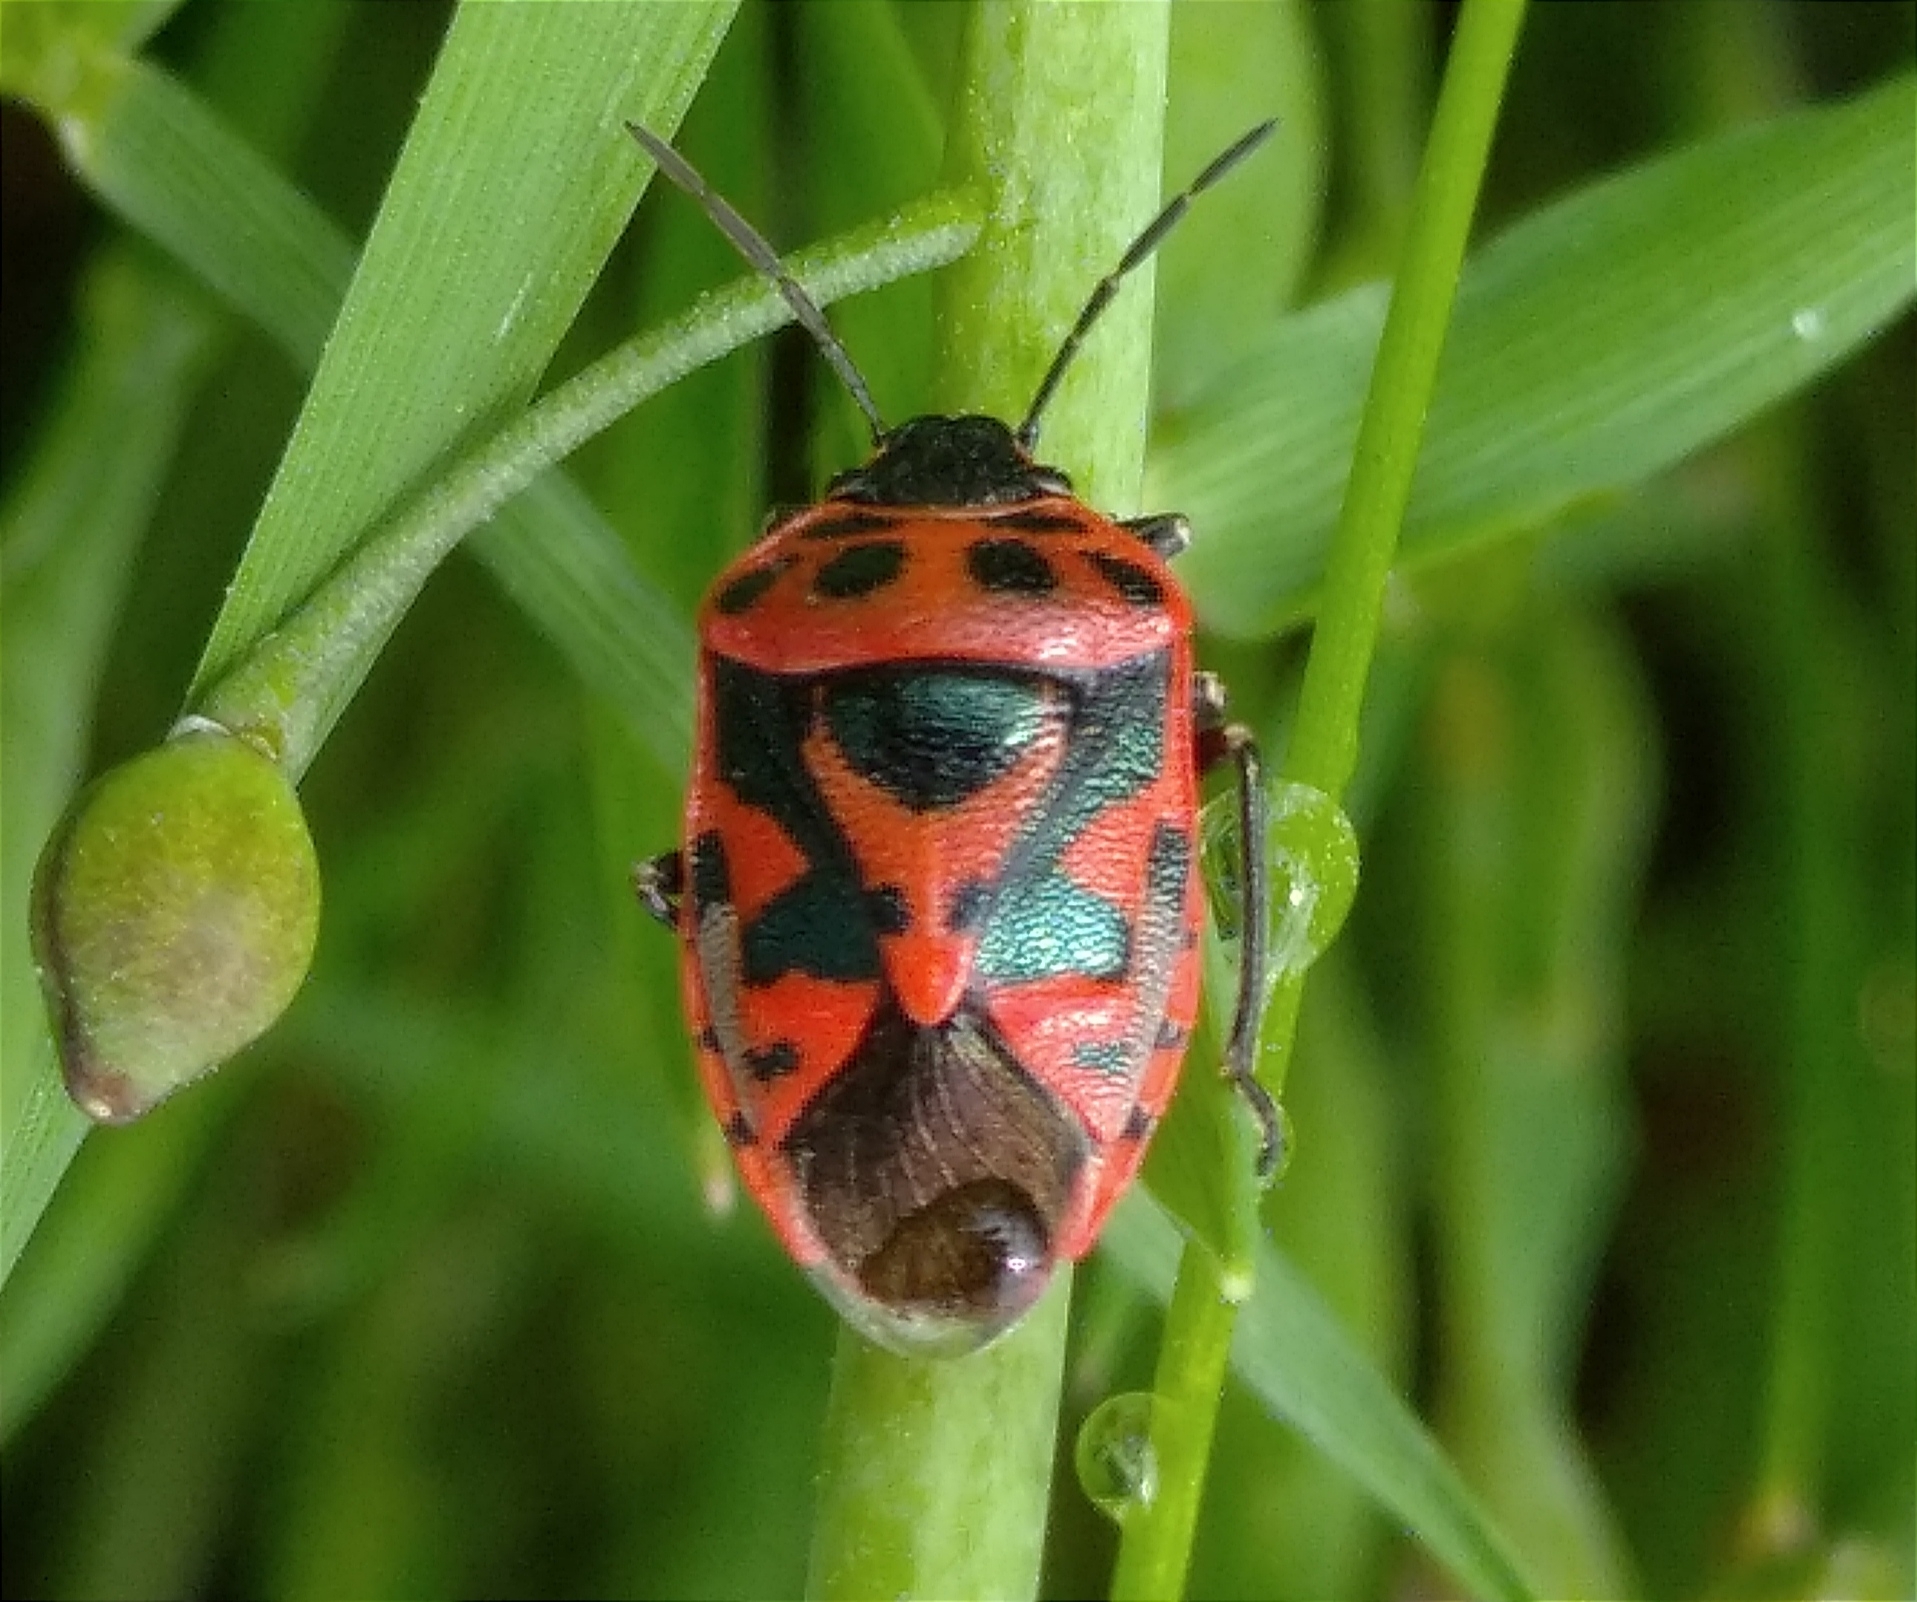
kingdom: Animalia
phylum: Arthropoda
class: Insecta
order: Hemiptera
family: Pentatomidae
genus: Eurydema
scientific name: Eurydema ornata
